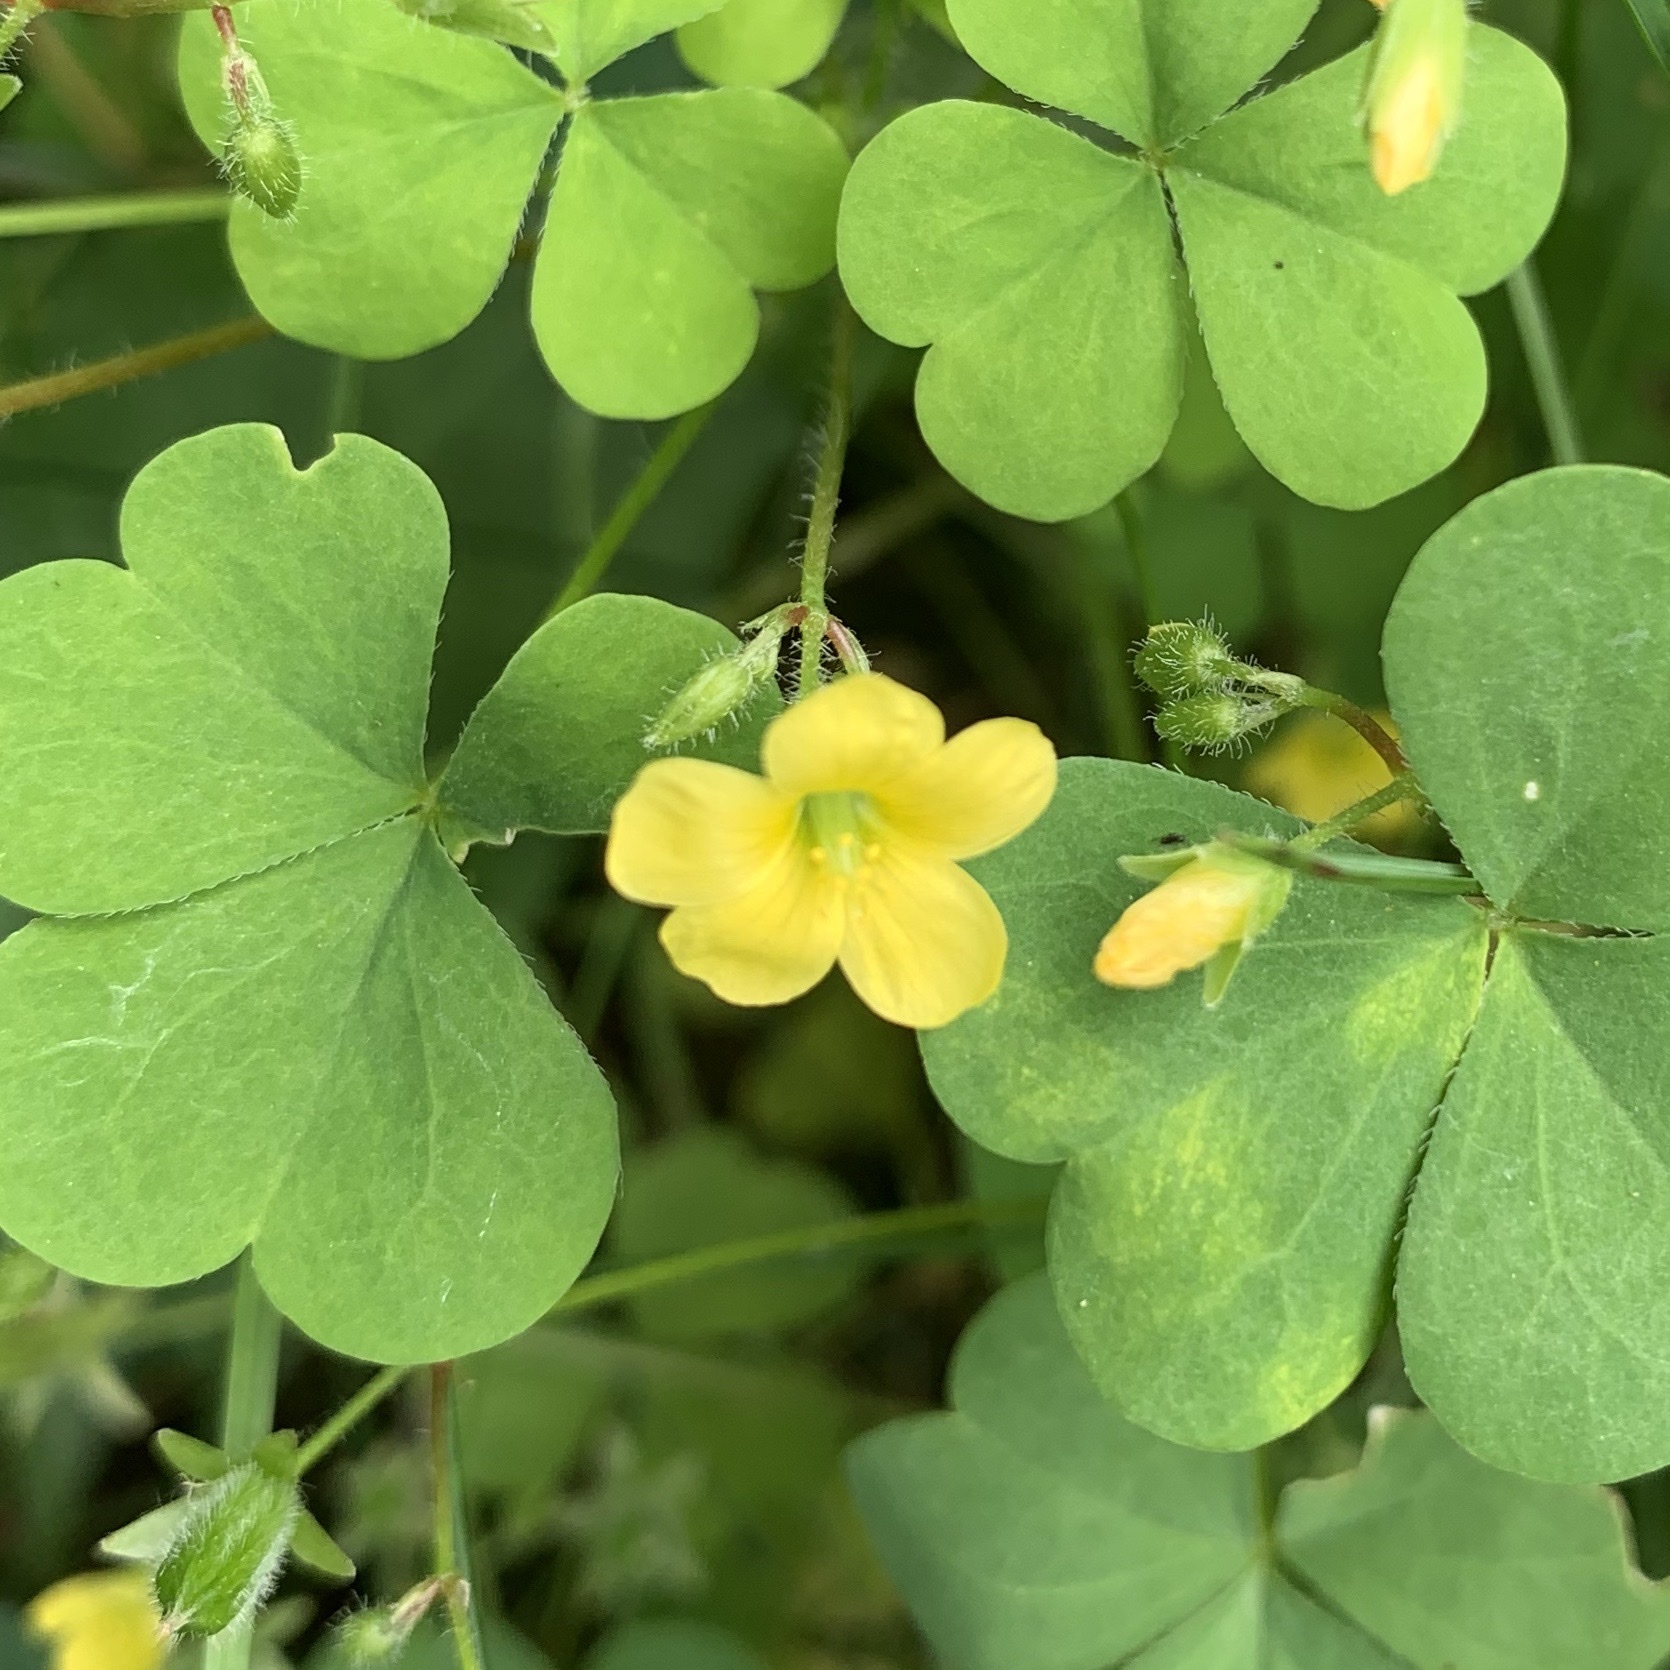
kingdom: Plantae
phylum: Tracheophyta
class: Magnoliopsida
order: Oxalidales
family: Oxalidaceae
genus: Oxalis
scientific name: Oxalis stricta
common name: Upright yellow-sorrel
